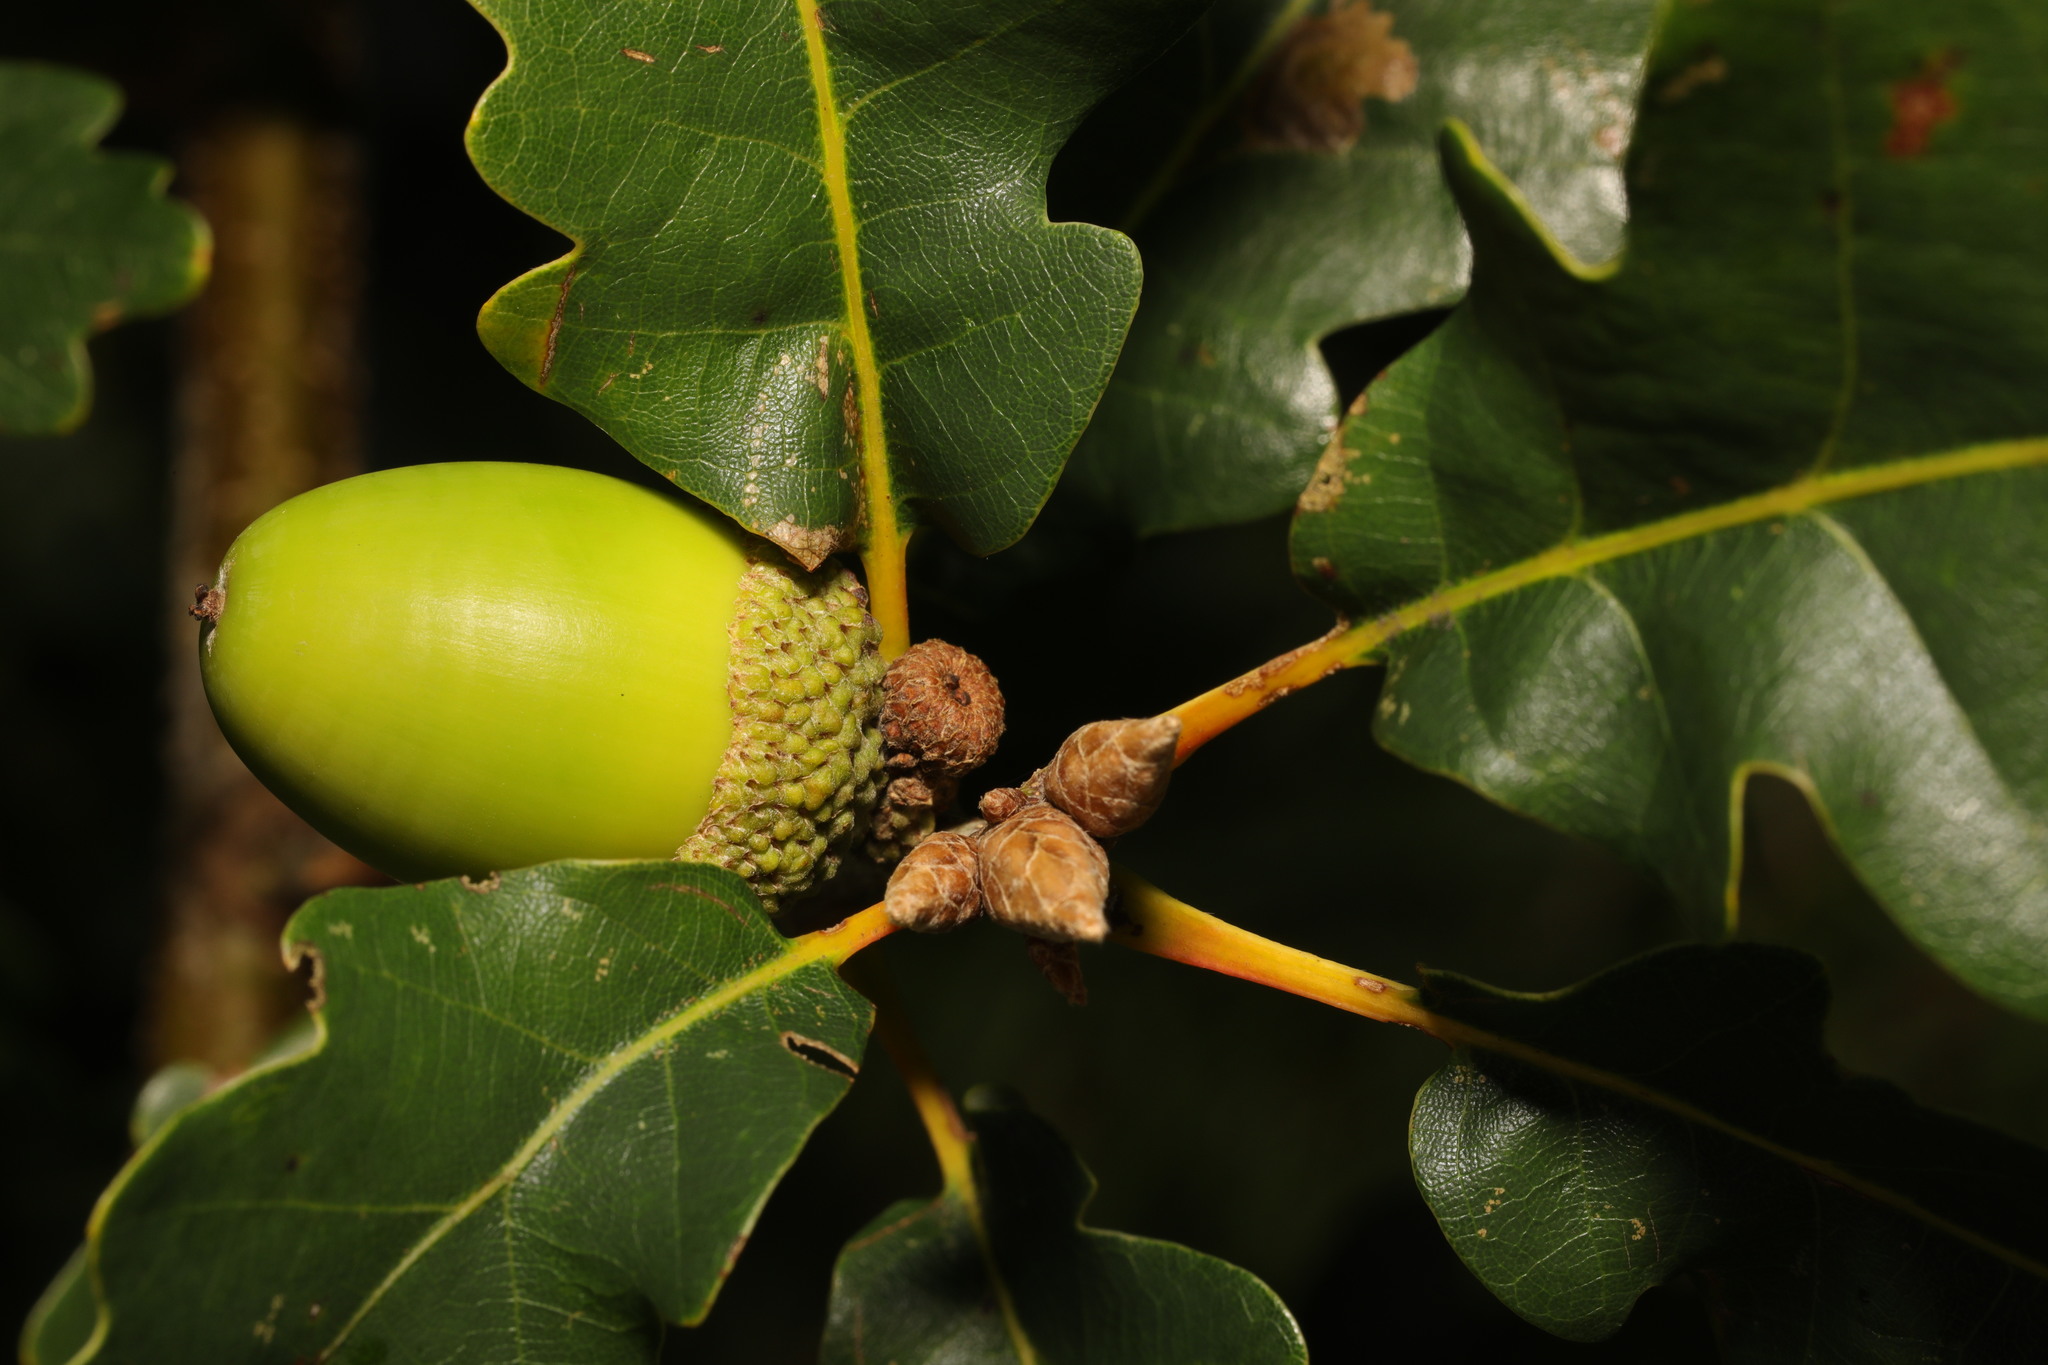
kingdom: Plantae
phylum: Tracheophyta
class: Magnoliopsida
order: Fagales
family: Fagaceae
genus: Quercus
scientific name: Quercus petraea
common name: Sessile oak
